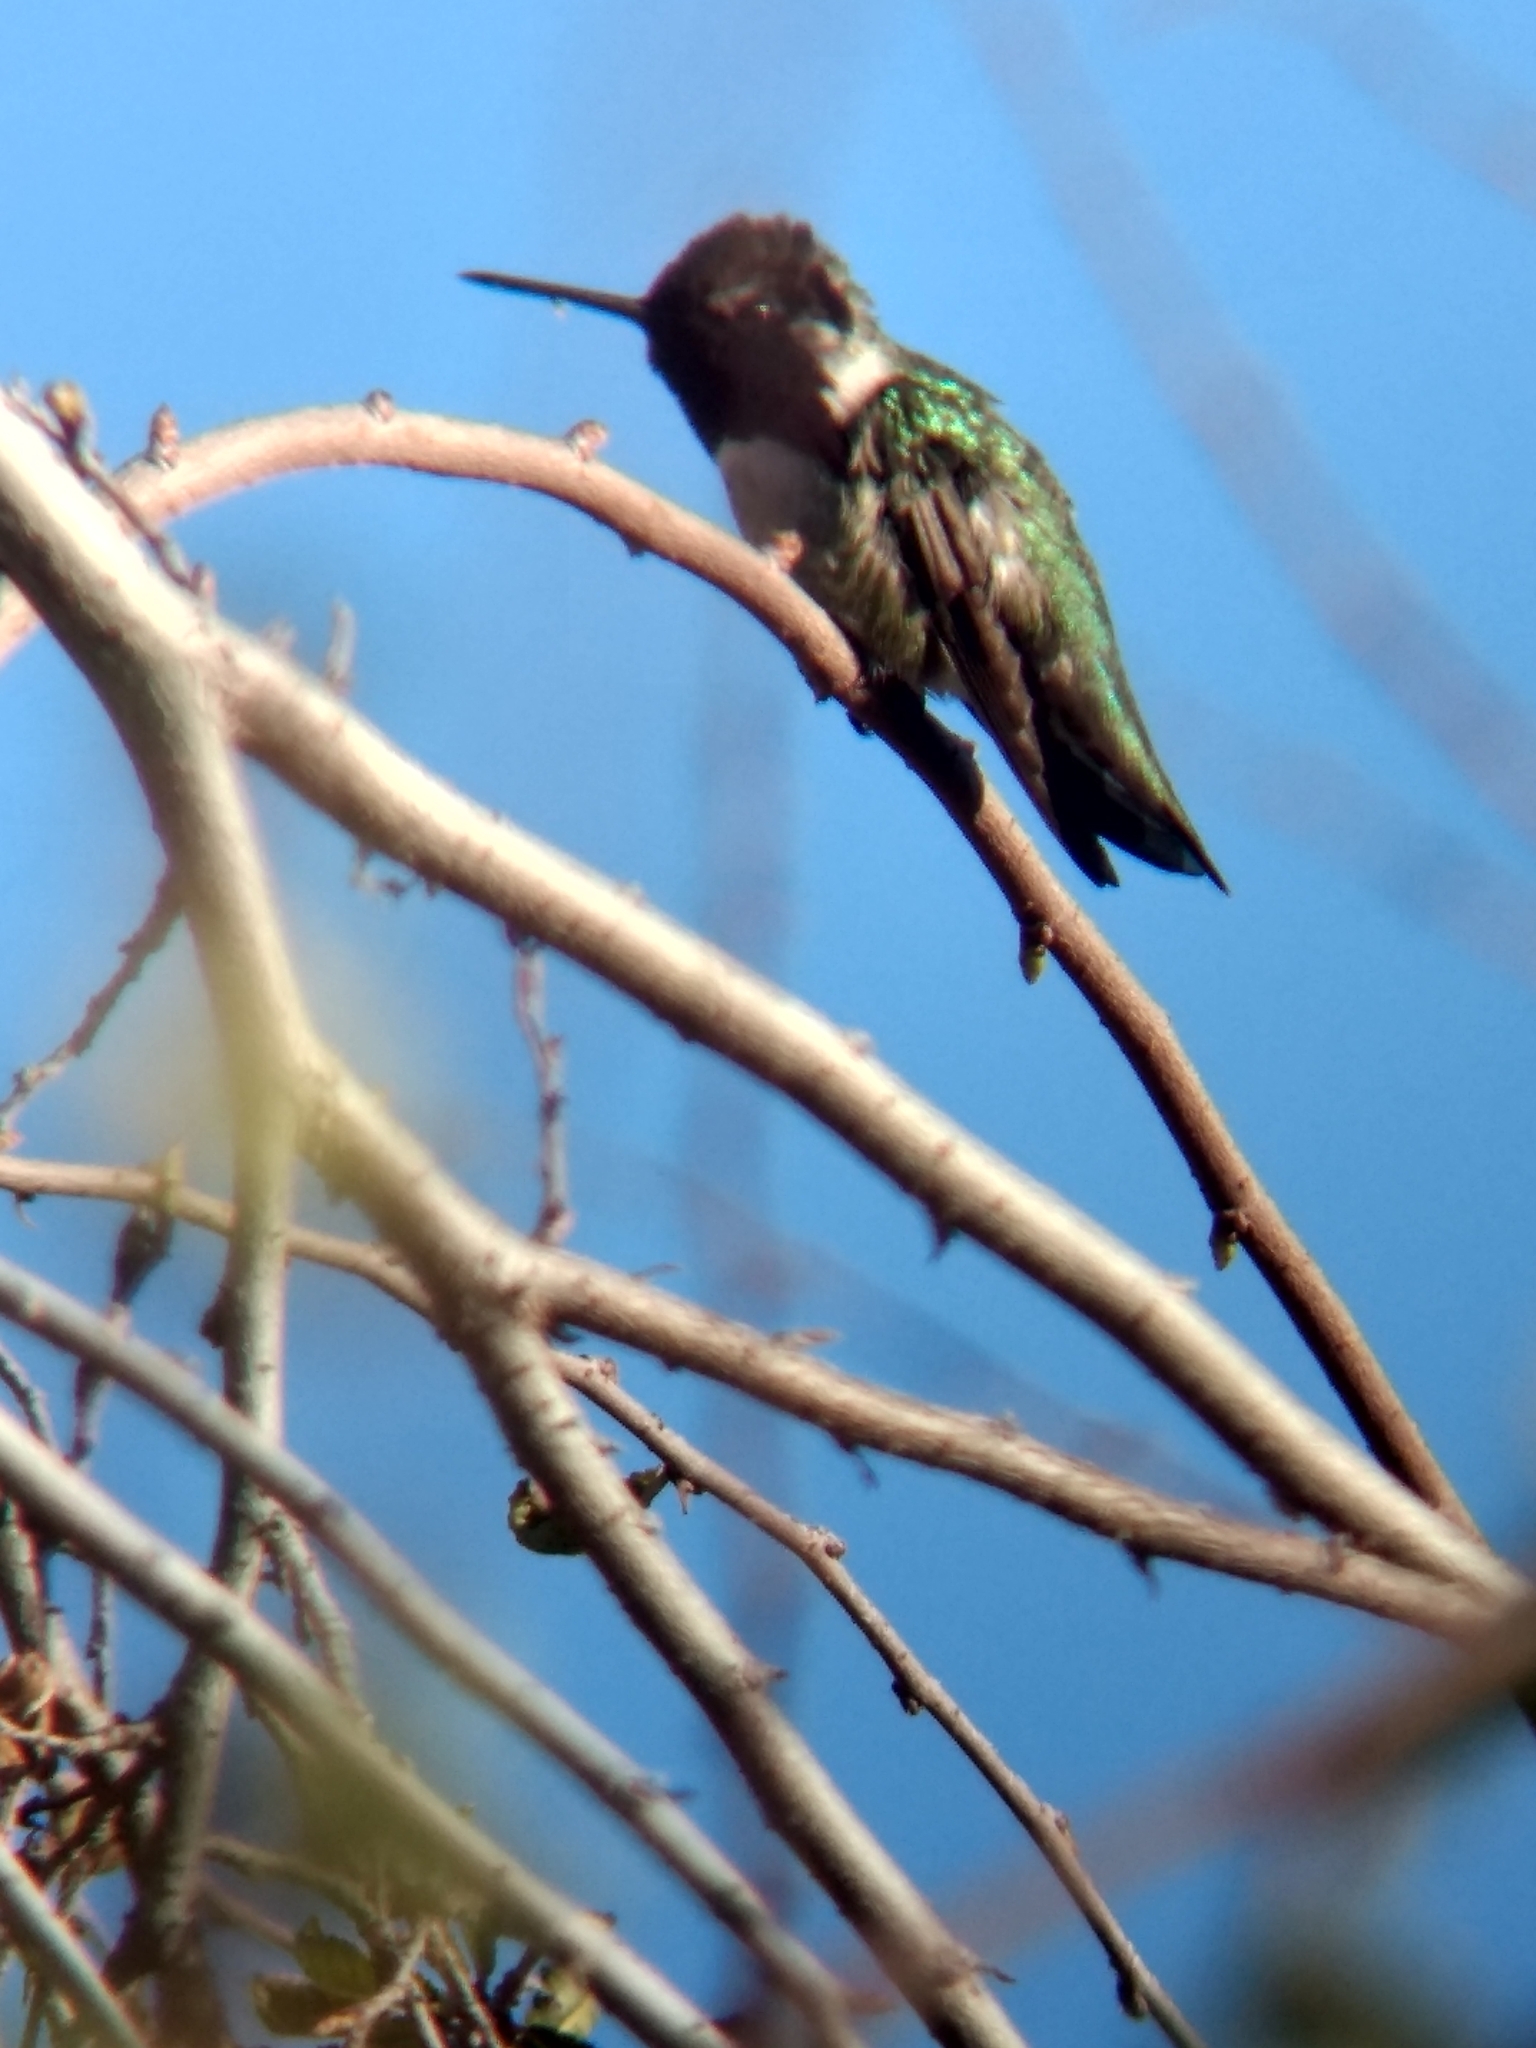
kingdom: Animalia
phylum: Chordata
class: Aves
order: Apodiformes
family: Trochilidae
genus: Calypte
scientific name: Calypte costae
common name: Costa's hummingbird
